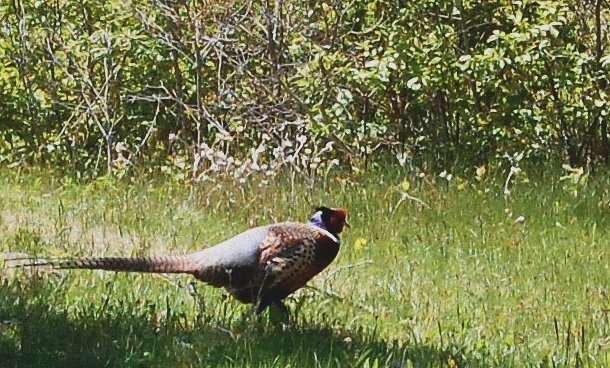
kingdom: Animalia
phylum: Chordata
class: Aves
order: Galliformes
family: Phasianidae
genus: Phasianus
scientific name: Phasianus colchicus
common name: Common pheasant
